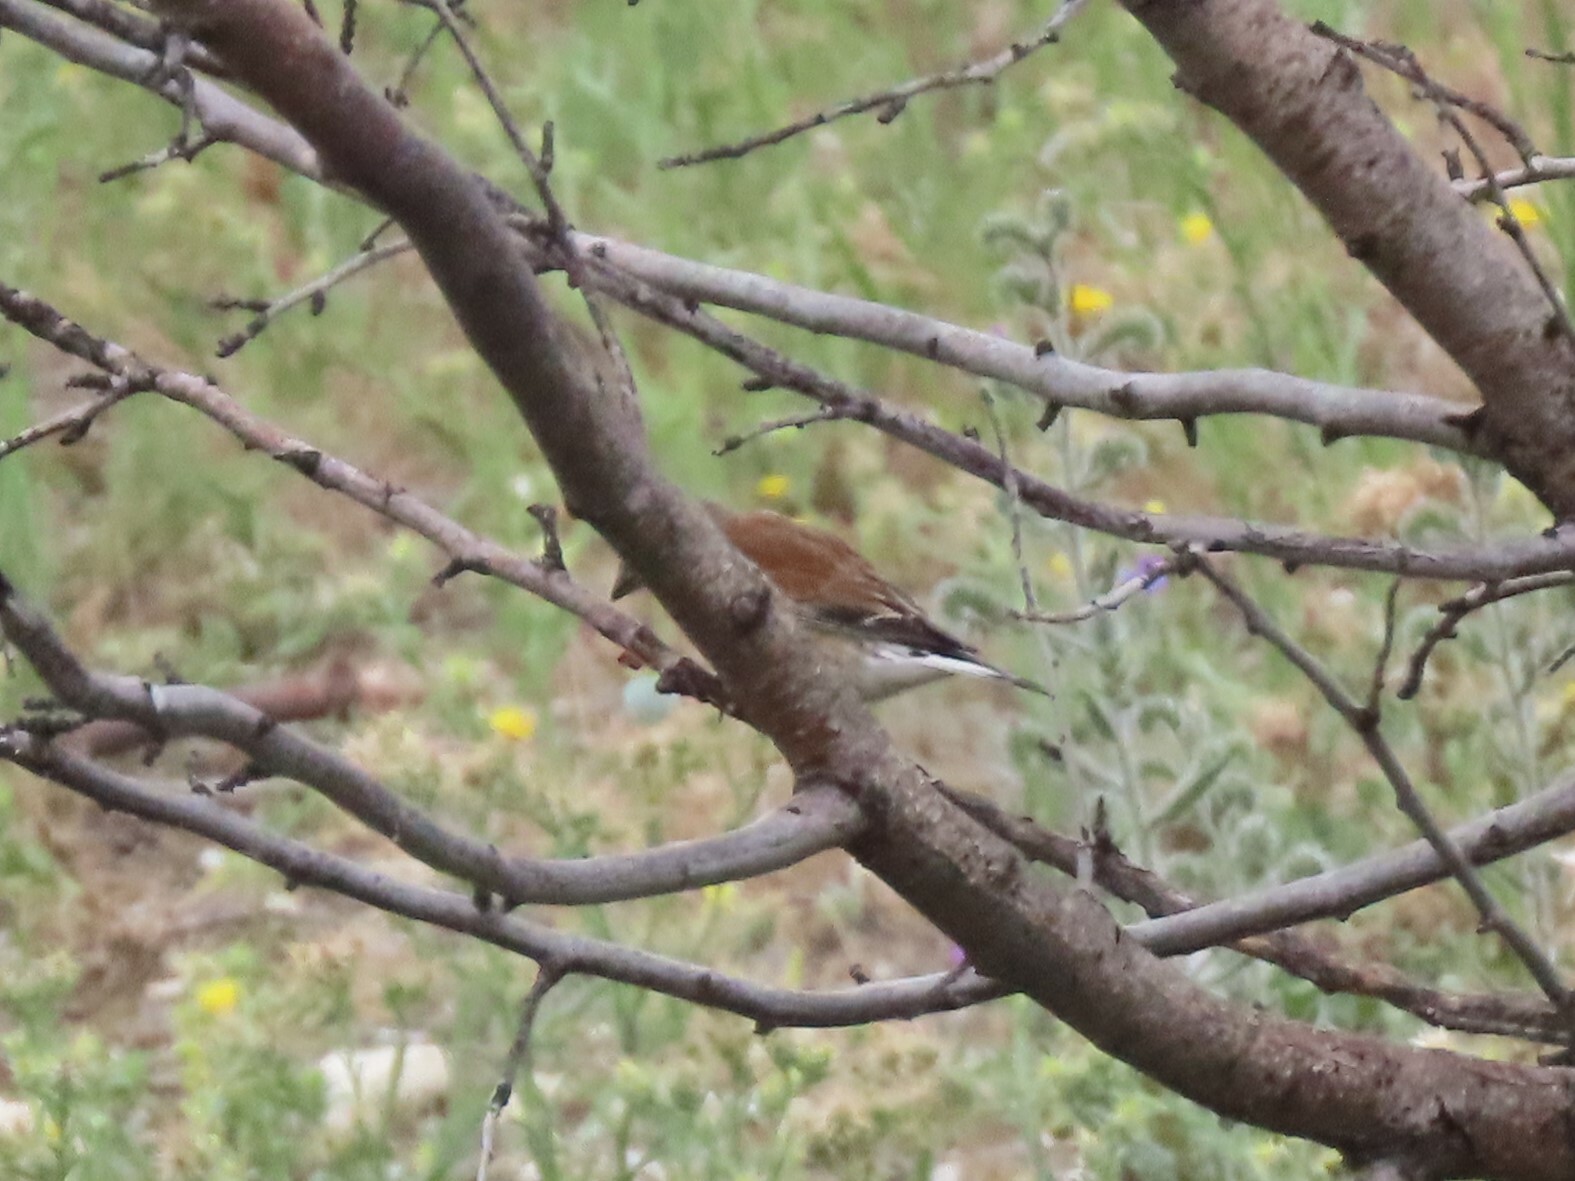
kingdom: Animalia
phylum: Chordata
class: Aves
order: Passeriformes
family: Fringillidae
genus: Linaria
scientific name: Linaria cannabina
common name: Common linnet
